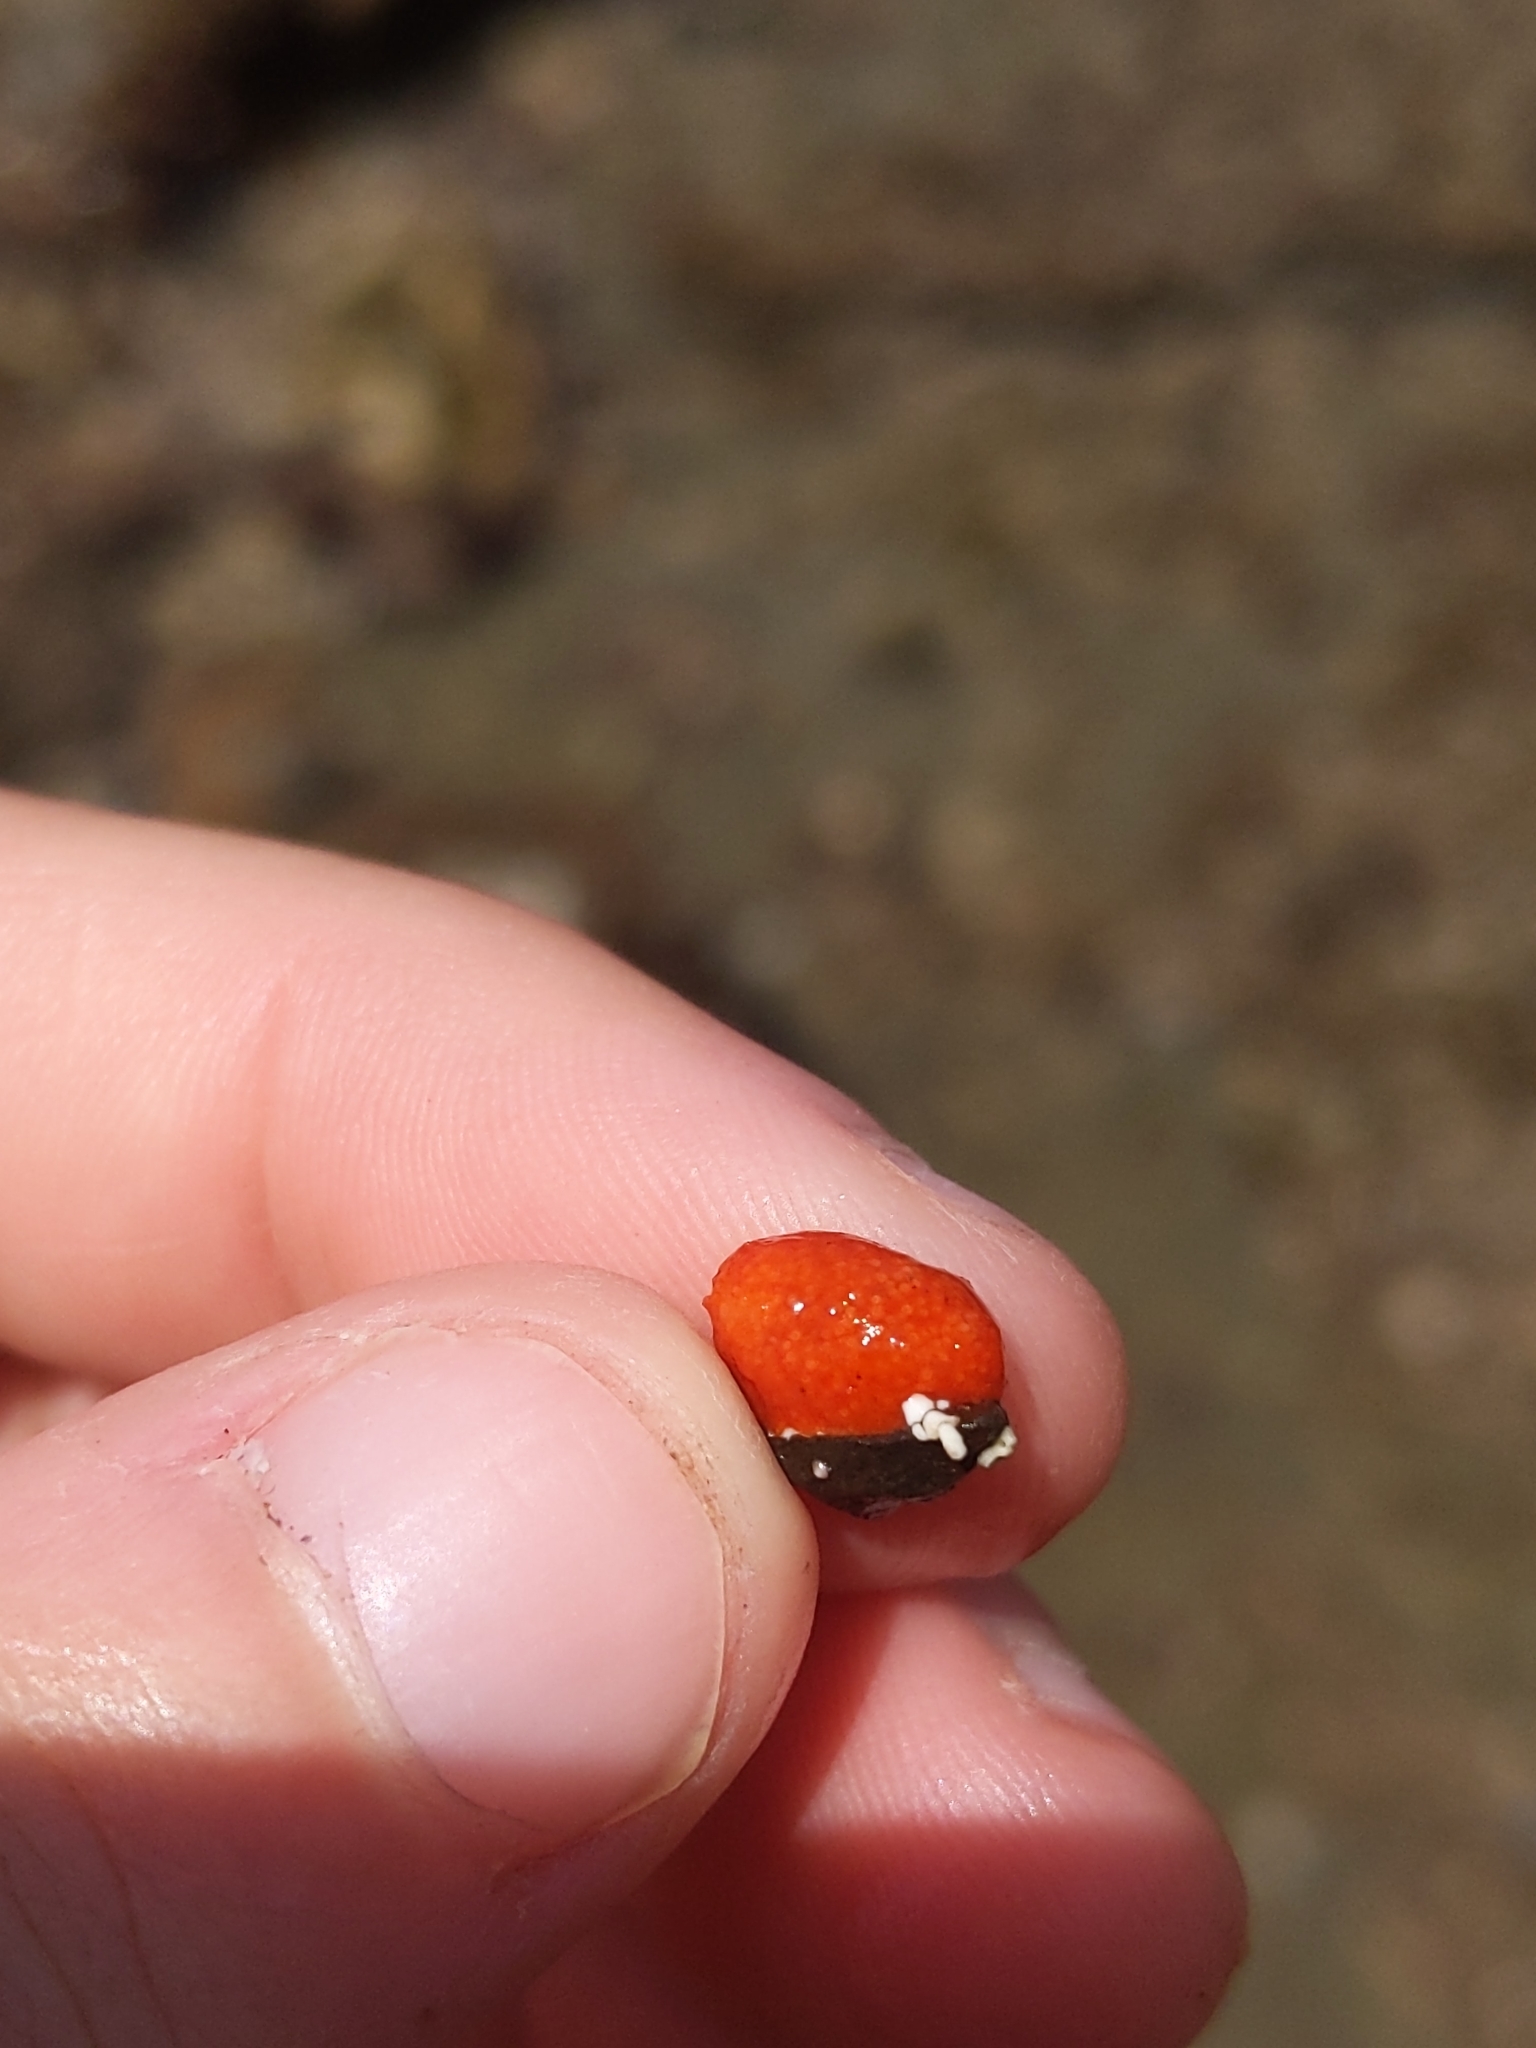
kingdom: Animalia
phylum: Echinodermata
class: Holothuroidea
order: Dendrochirotida
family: Psolidae
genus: Lissothuria
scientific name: Lissothuria nutriens
